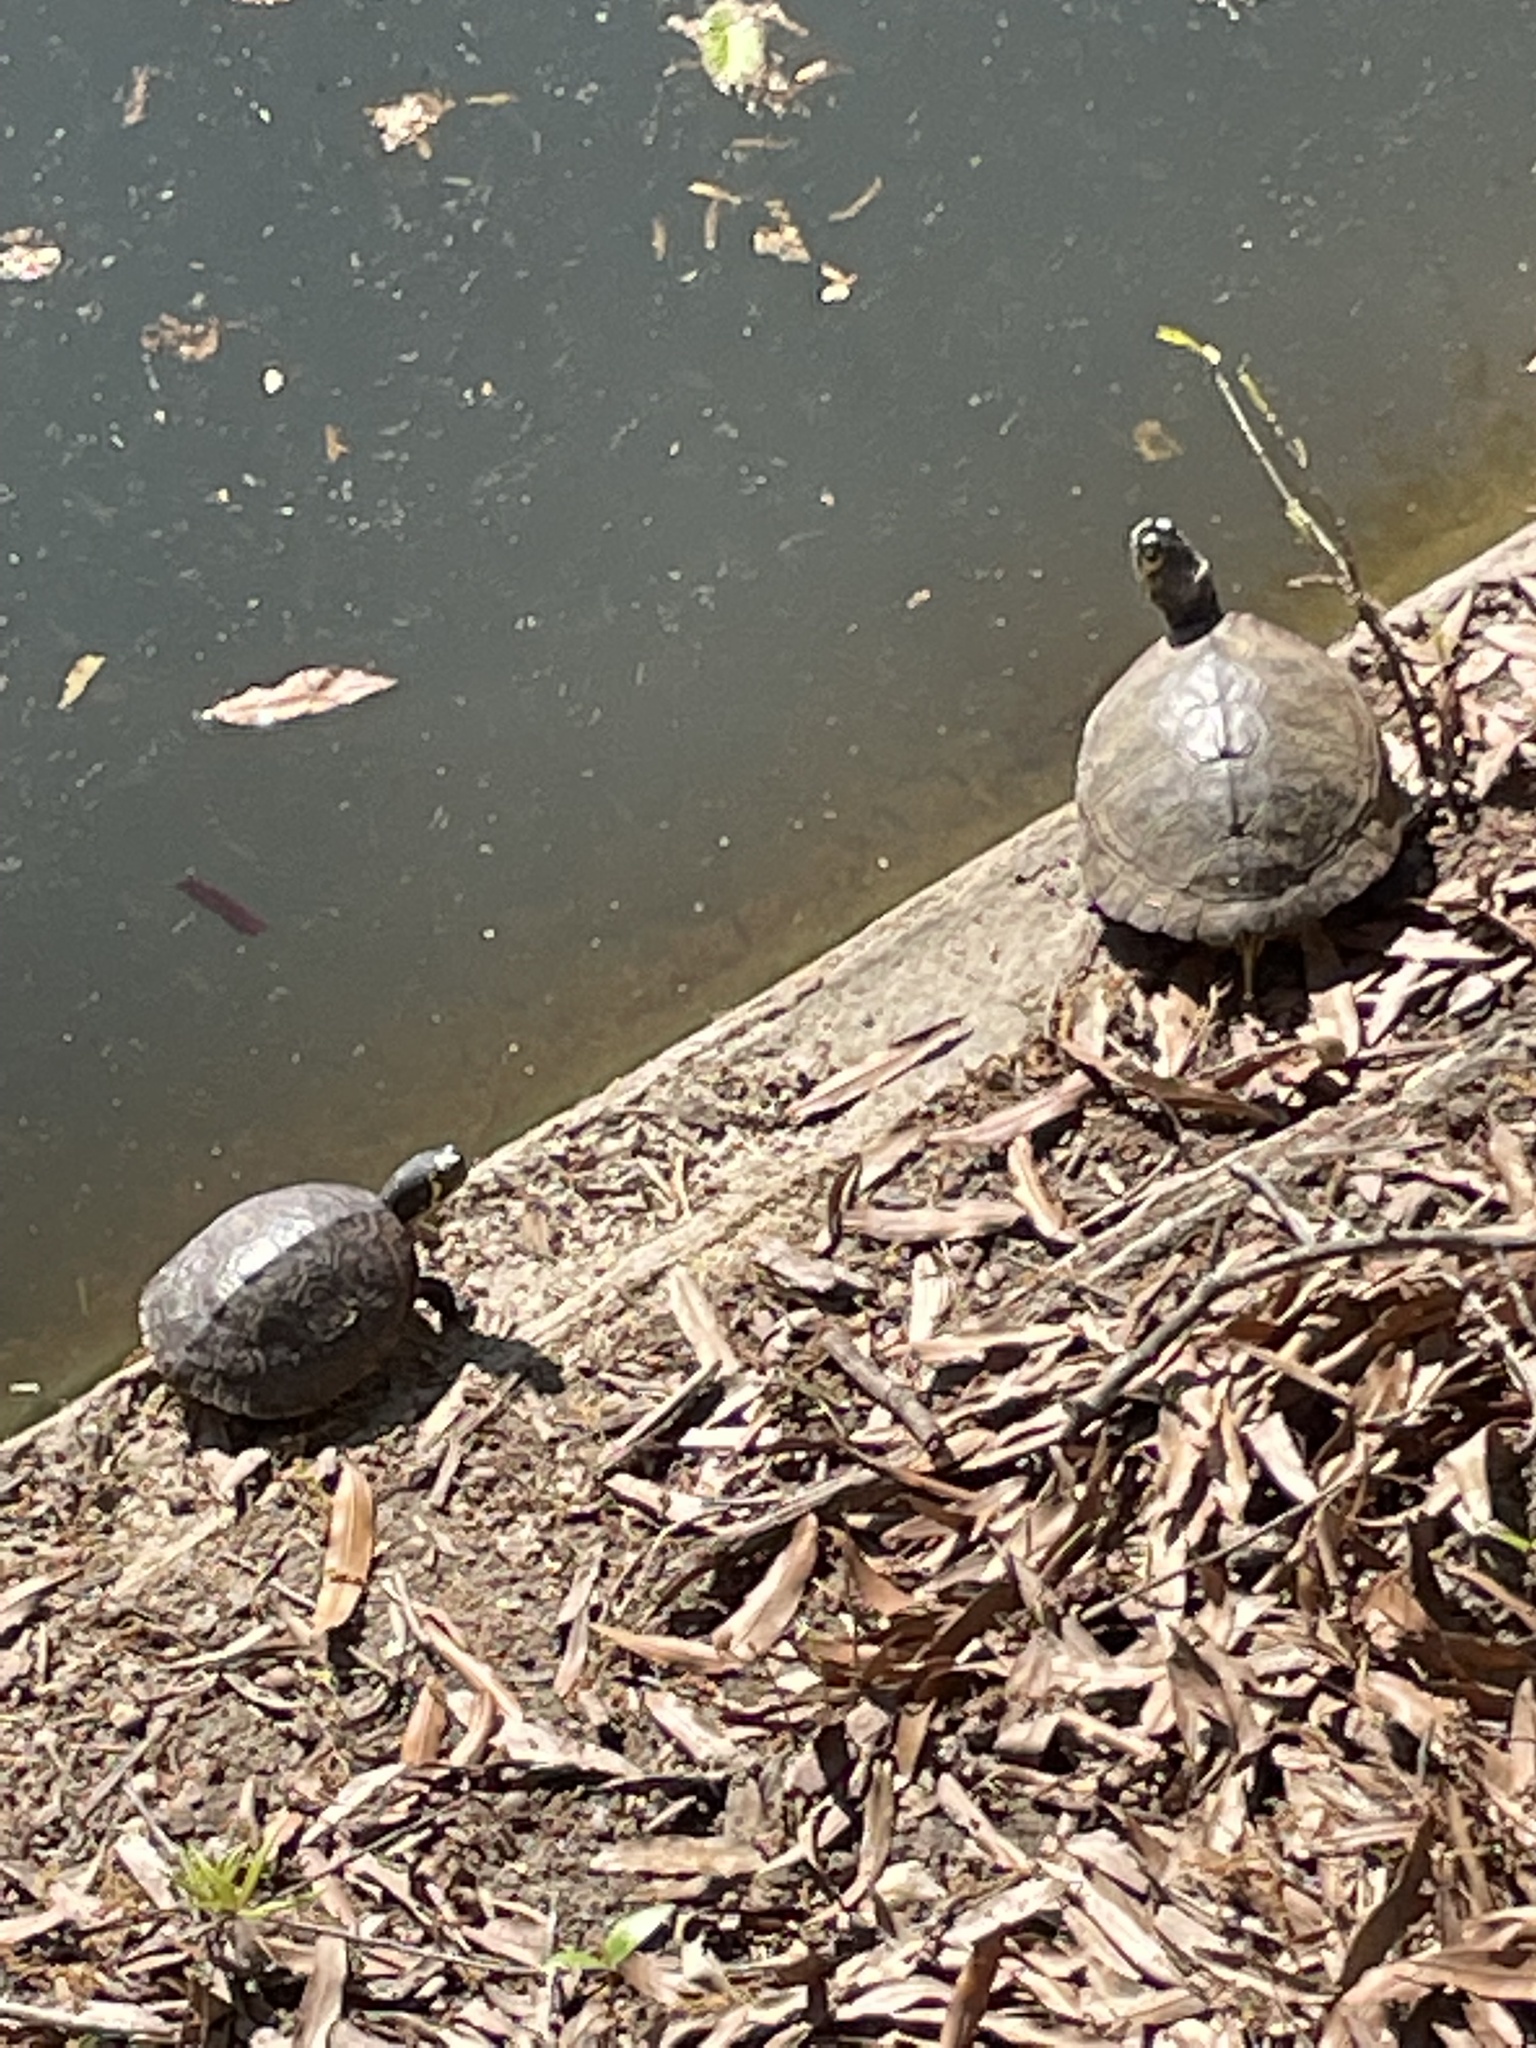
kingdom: Animalia
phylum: Chordata
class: Testudines
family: Emydidae
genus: Trachemys
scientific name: Trachemys scripta
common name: Slider
